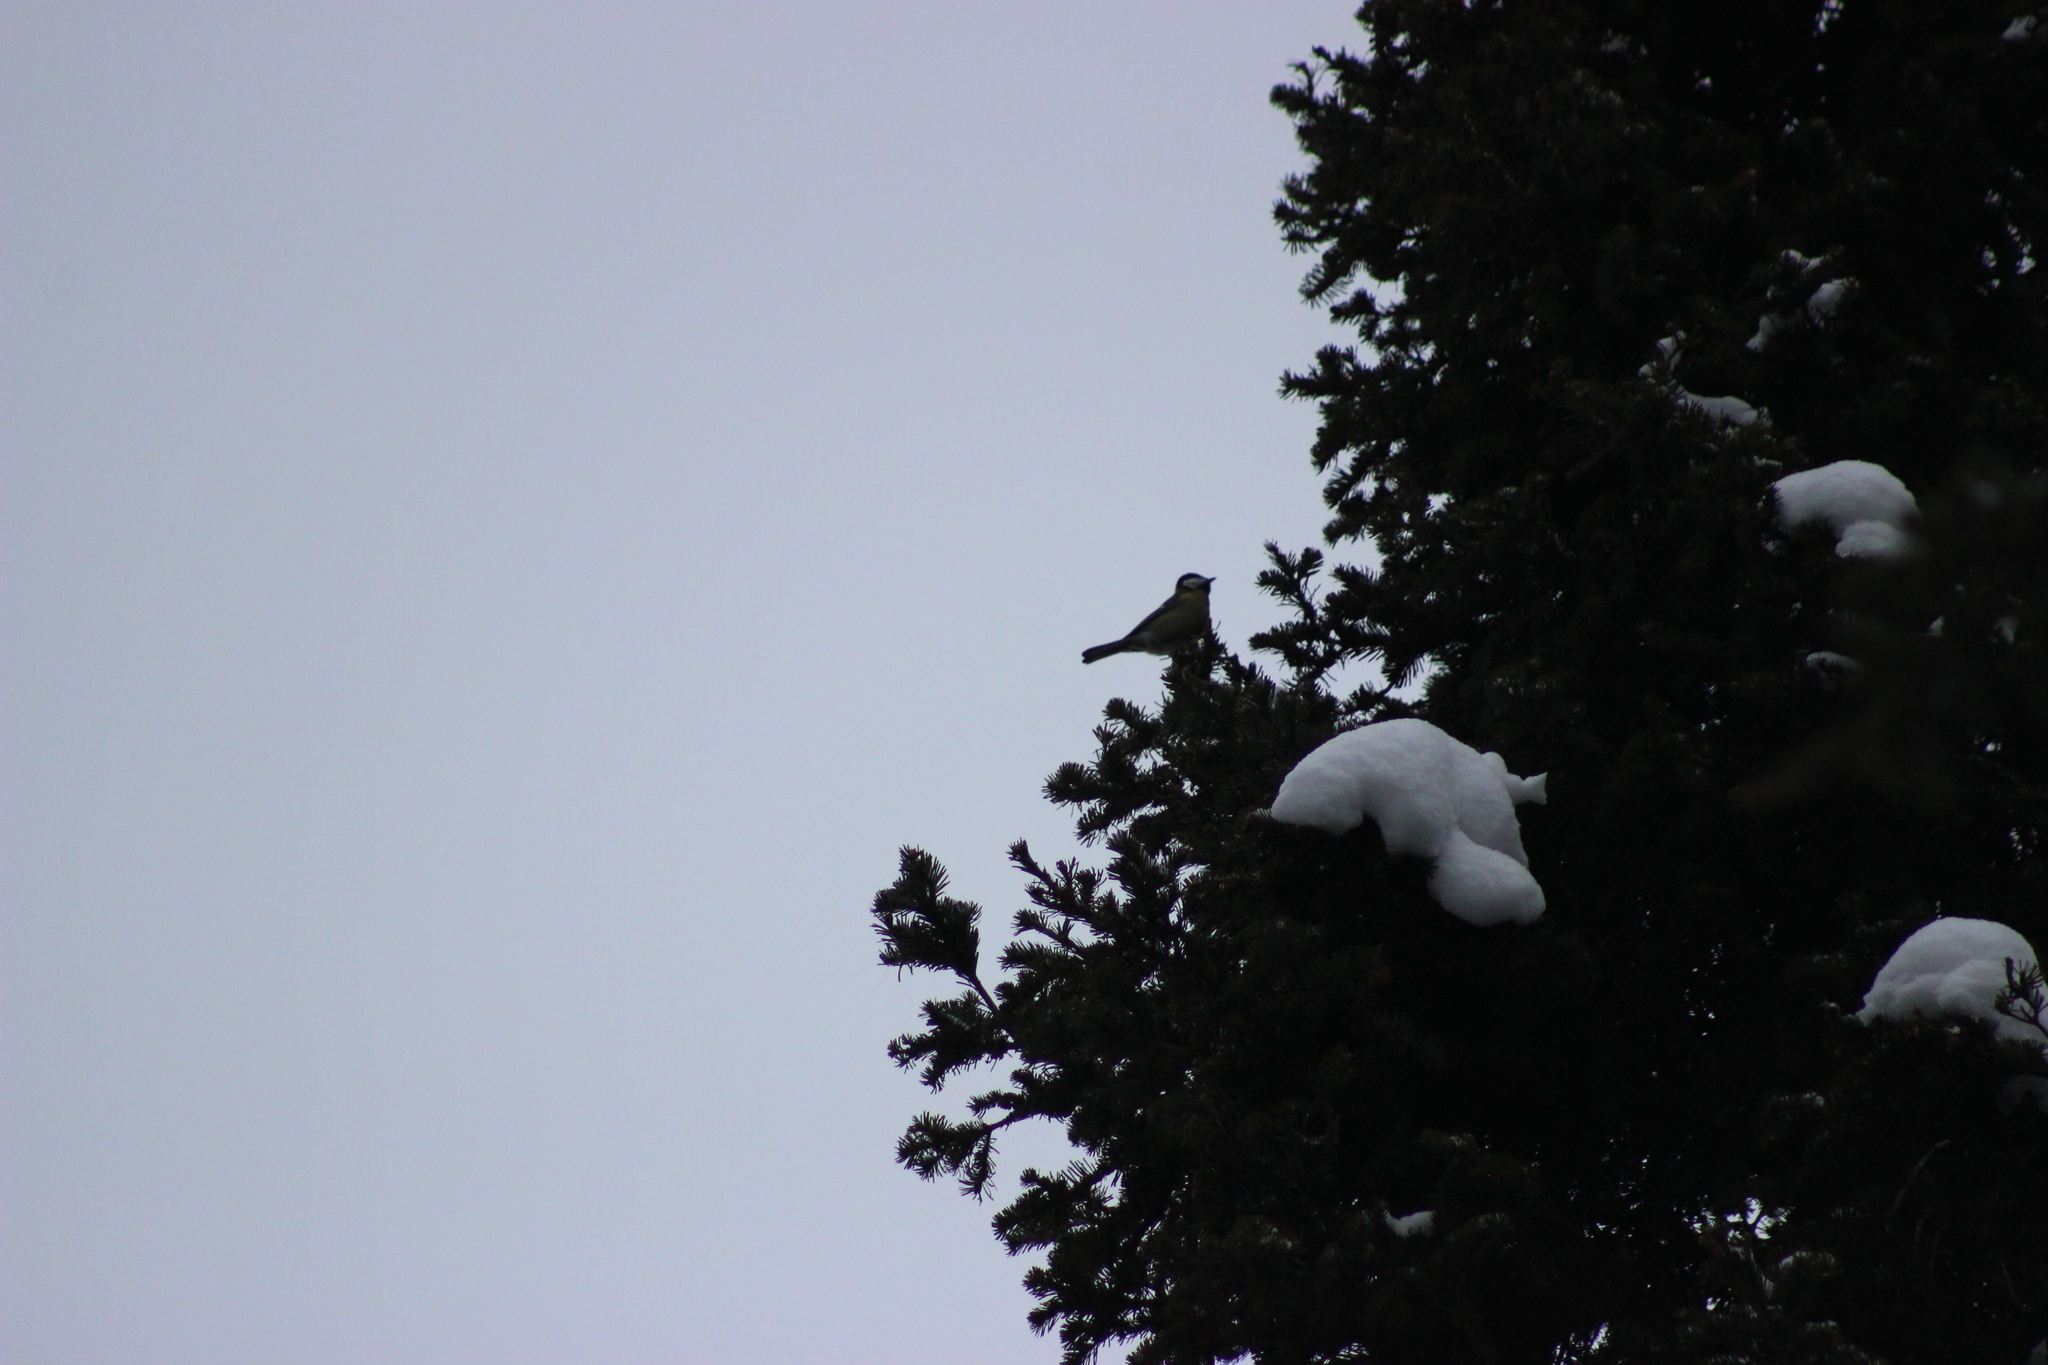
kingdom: Animalia
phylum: Chordata
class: Aves
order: Passeriformes
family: Paridae
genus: Parus
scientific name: Parus major
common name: Great tit
